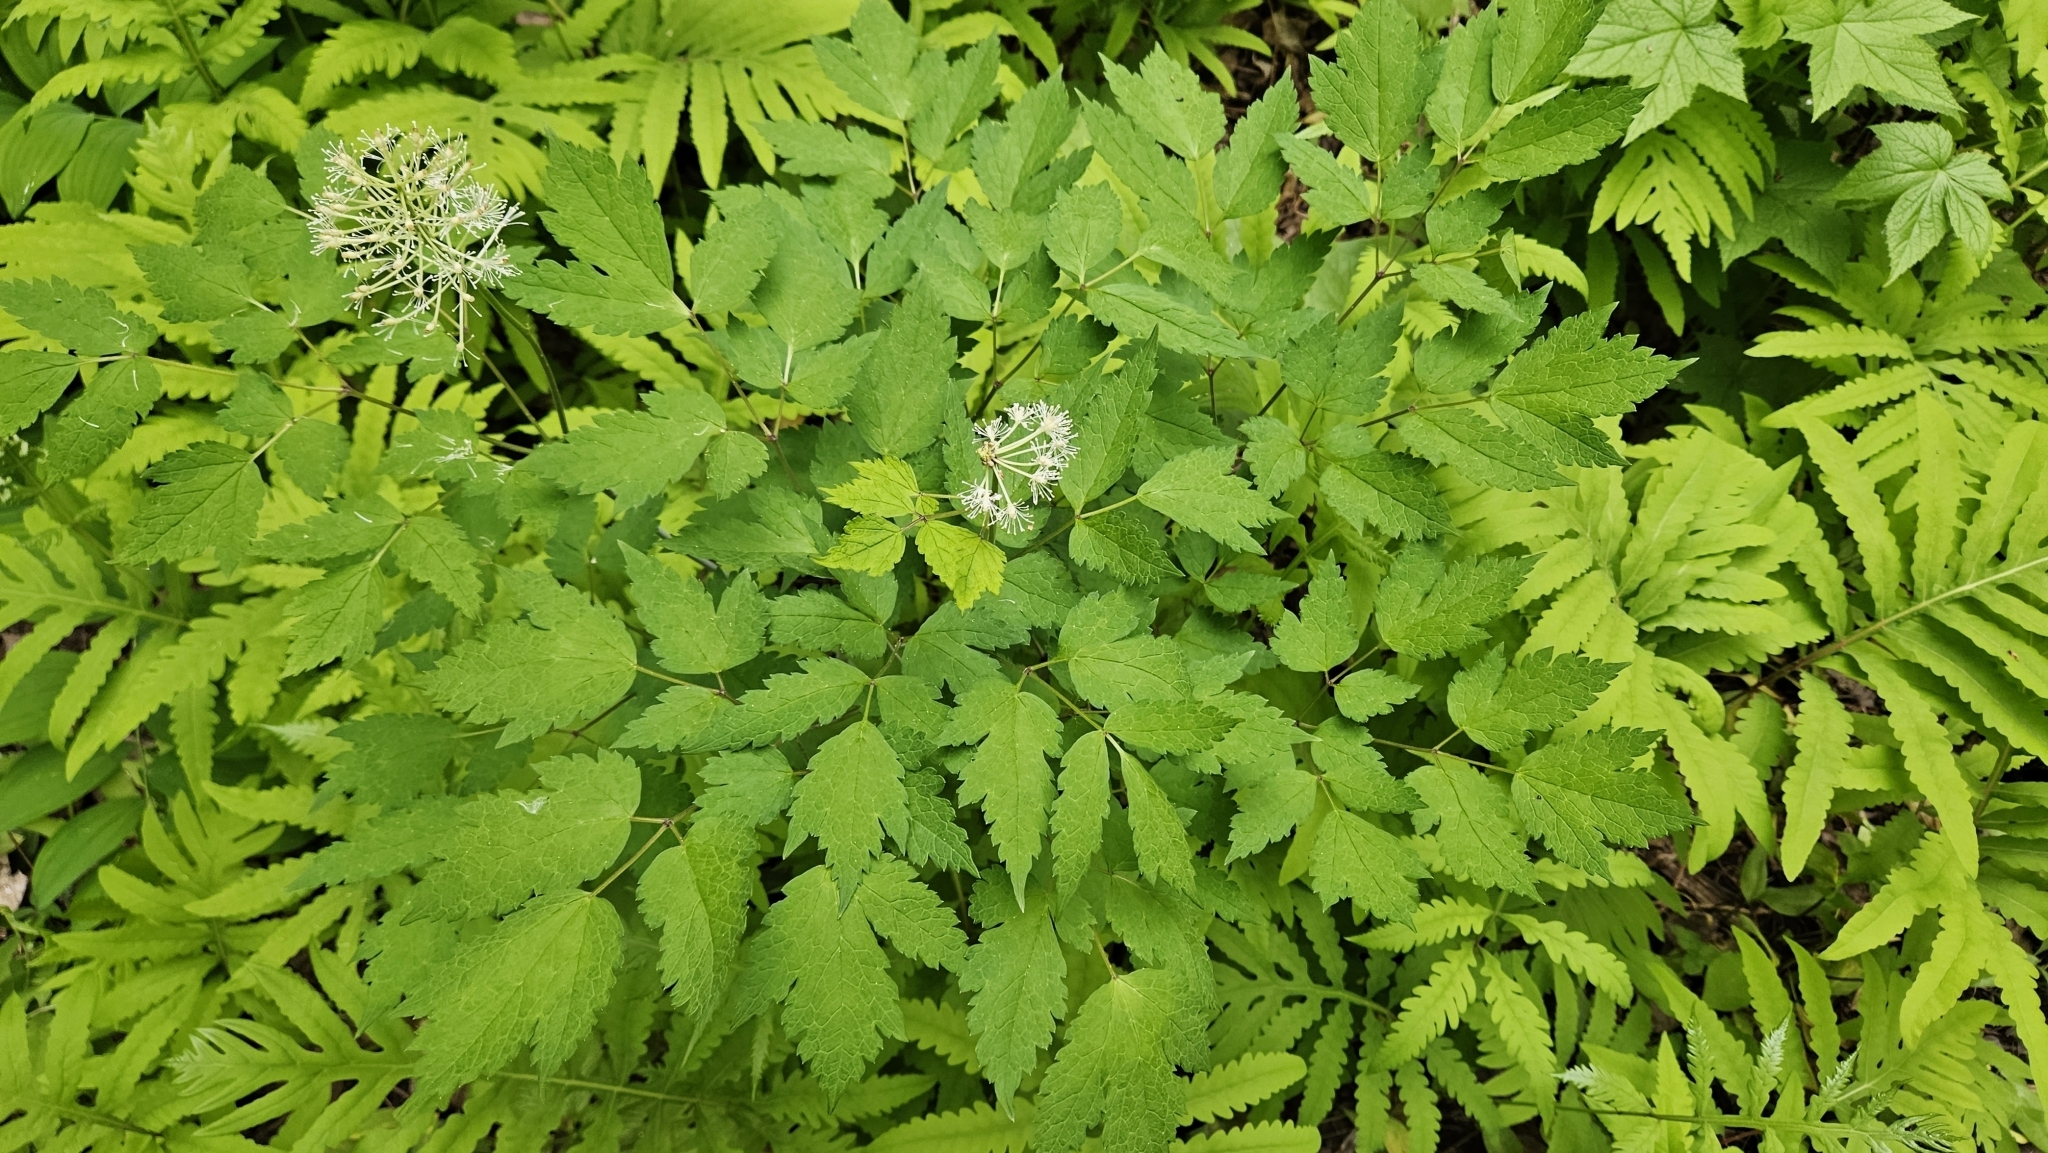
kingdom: Plantae
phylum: Tracheophyta
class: Magnoliopsida
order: Ranunculales
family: Ranunculaceae
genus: Actaea
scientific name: Actaea rubra
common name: Red baneberry
